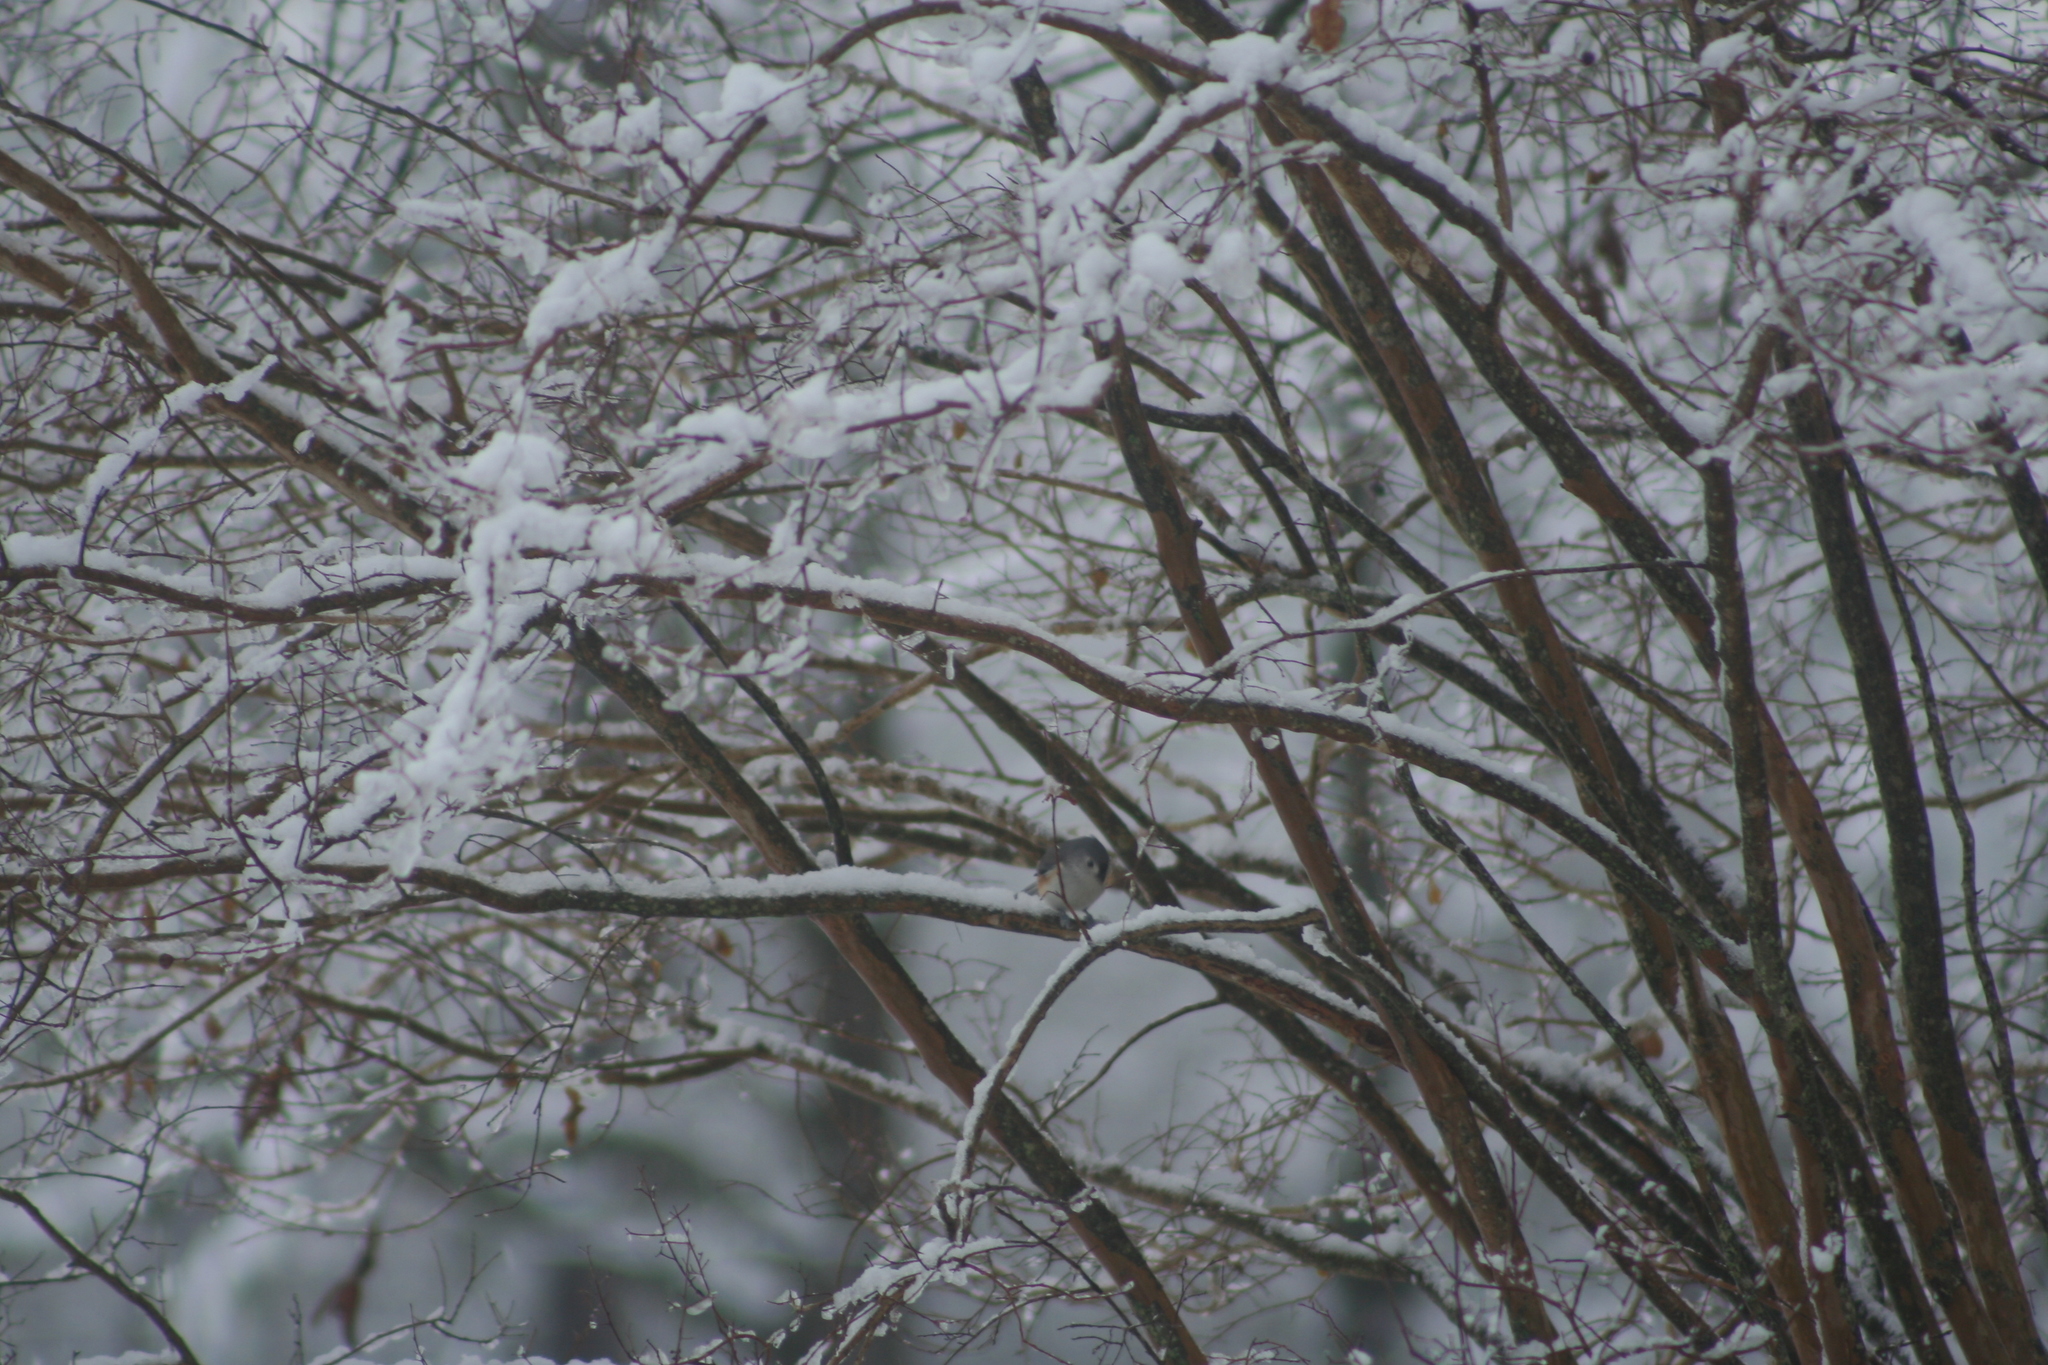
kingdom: Animalia
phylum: Chordata
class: Aves
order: Passeriformes
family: Paridae
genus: Baeolophus
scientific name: Baeolophus bicolor
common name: Tufted titmouse
